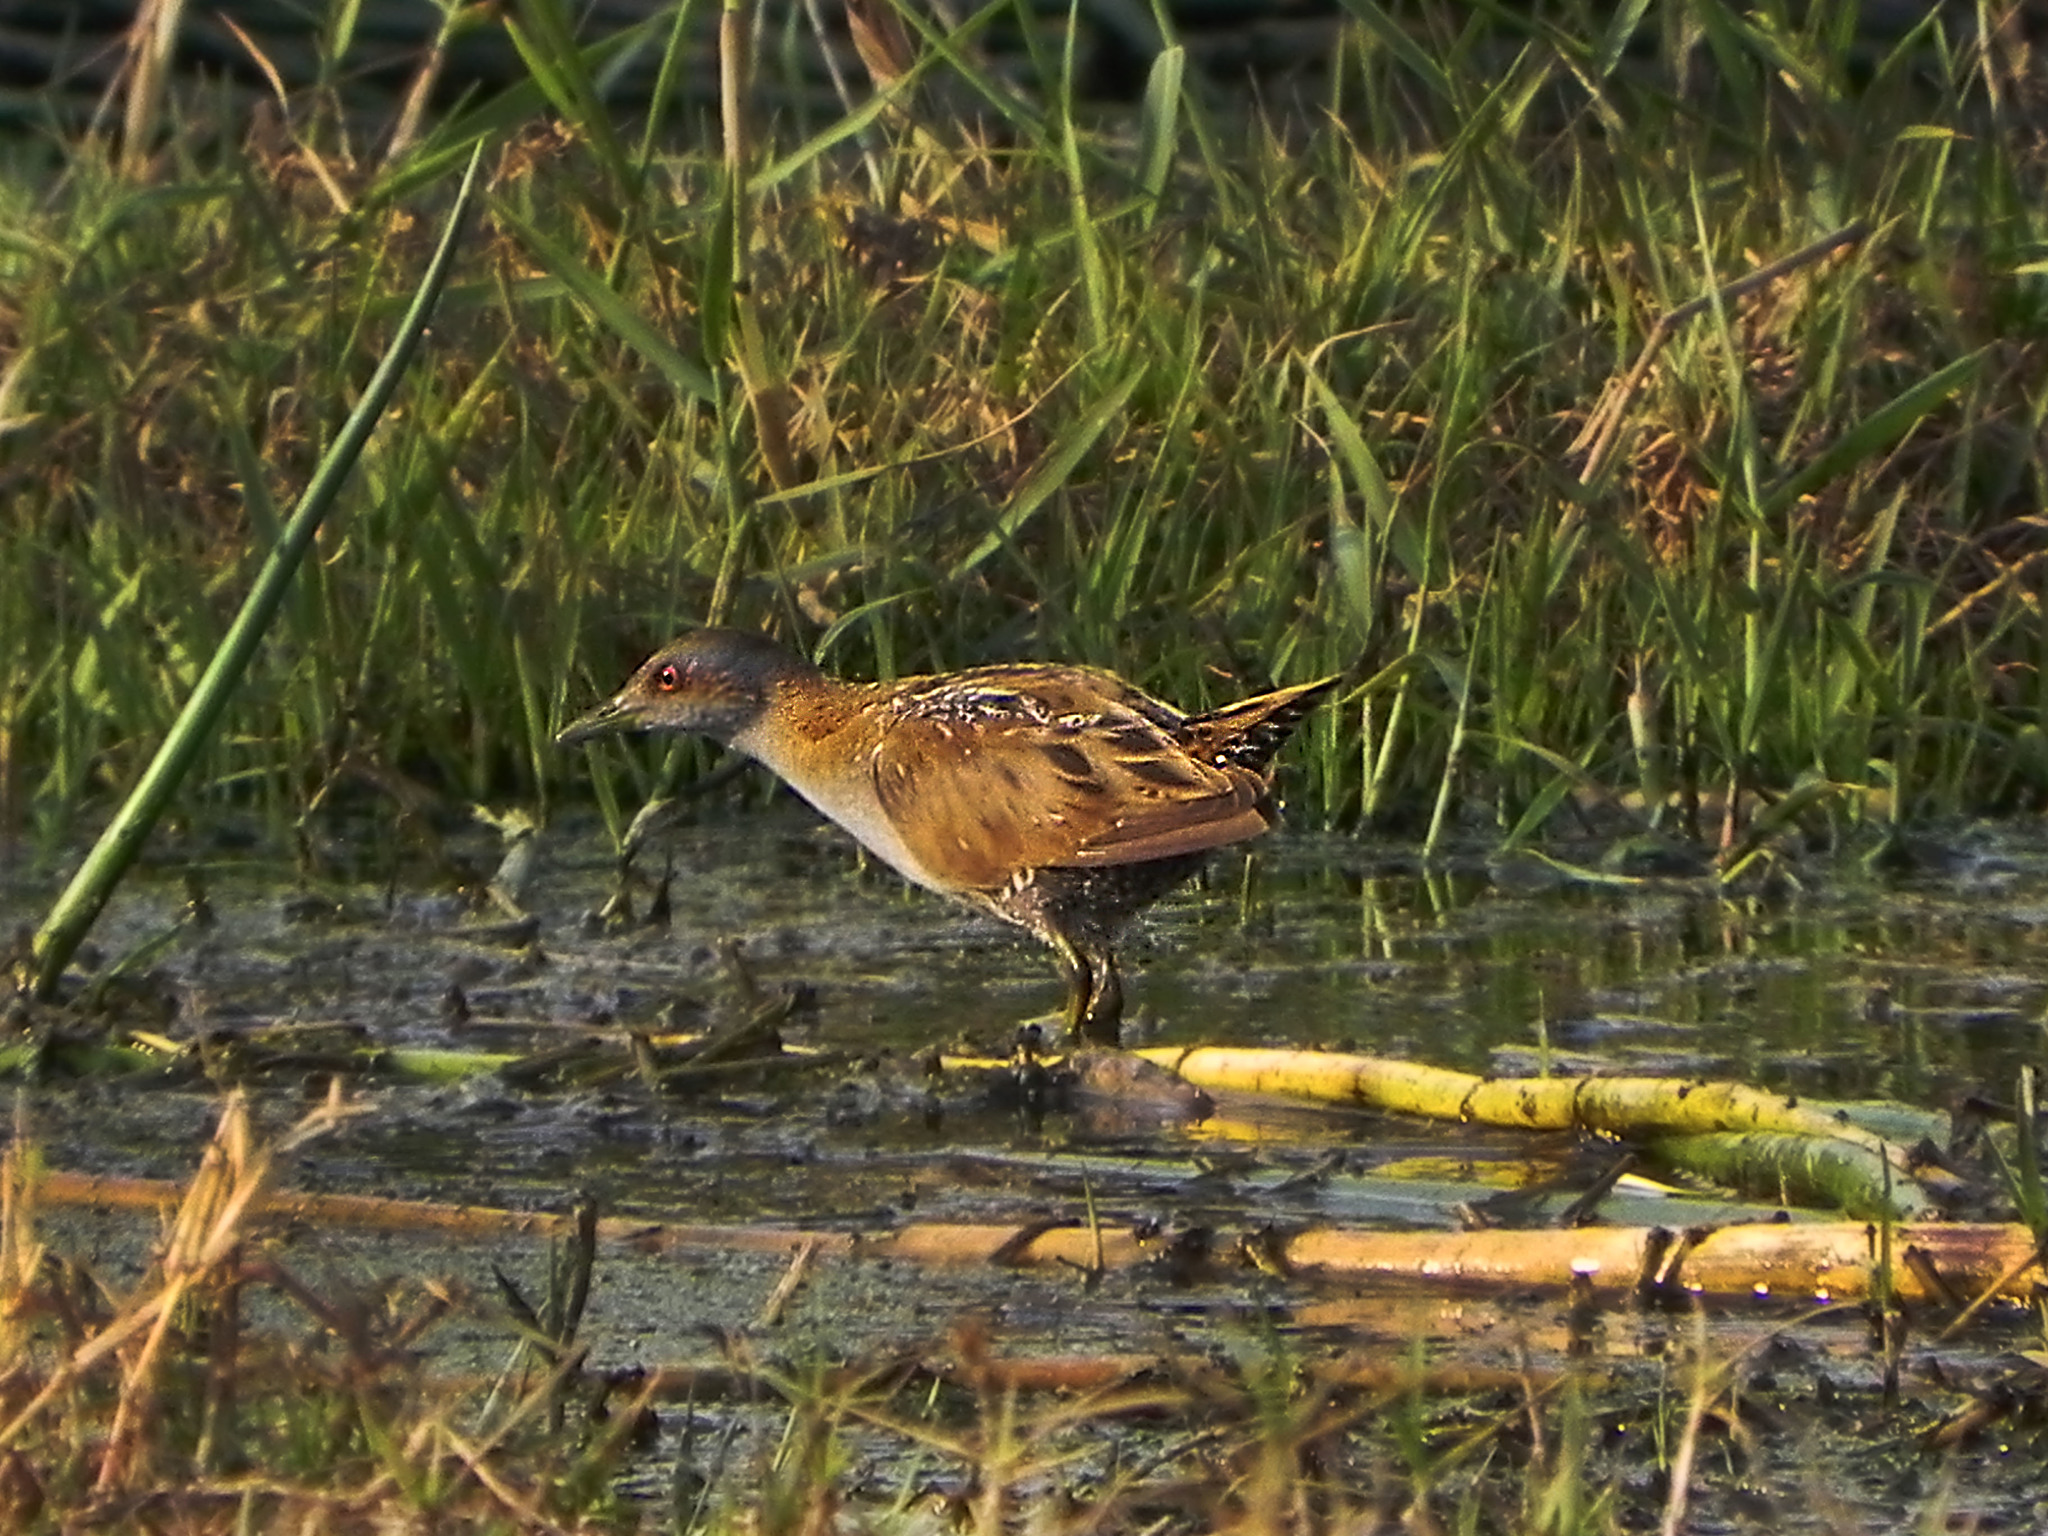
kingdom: Animalia
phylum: Chordata
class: Aves
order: Gruiformes
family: Rallidae
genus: Porzana
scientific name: Porzana pusilla
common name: Baillon's crake
